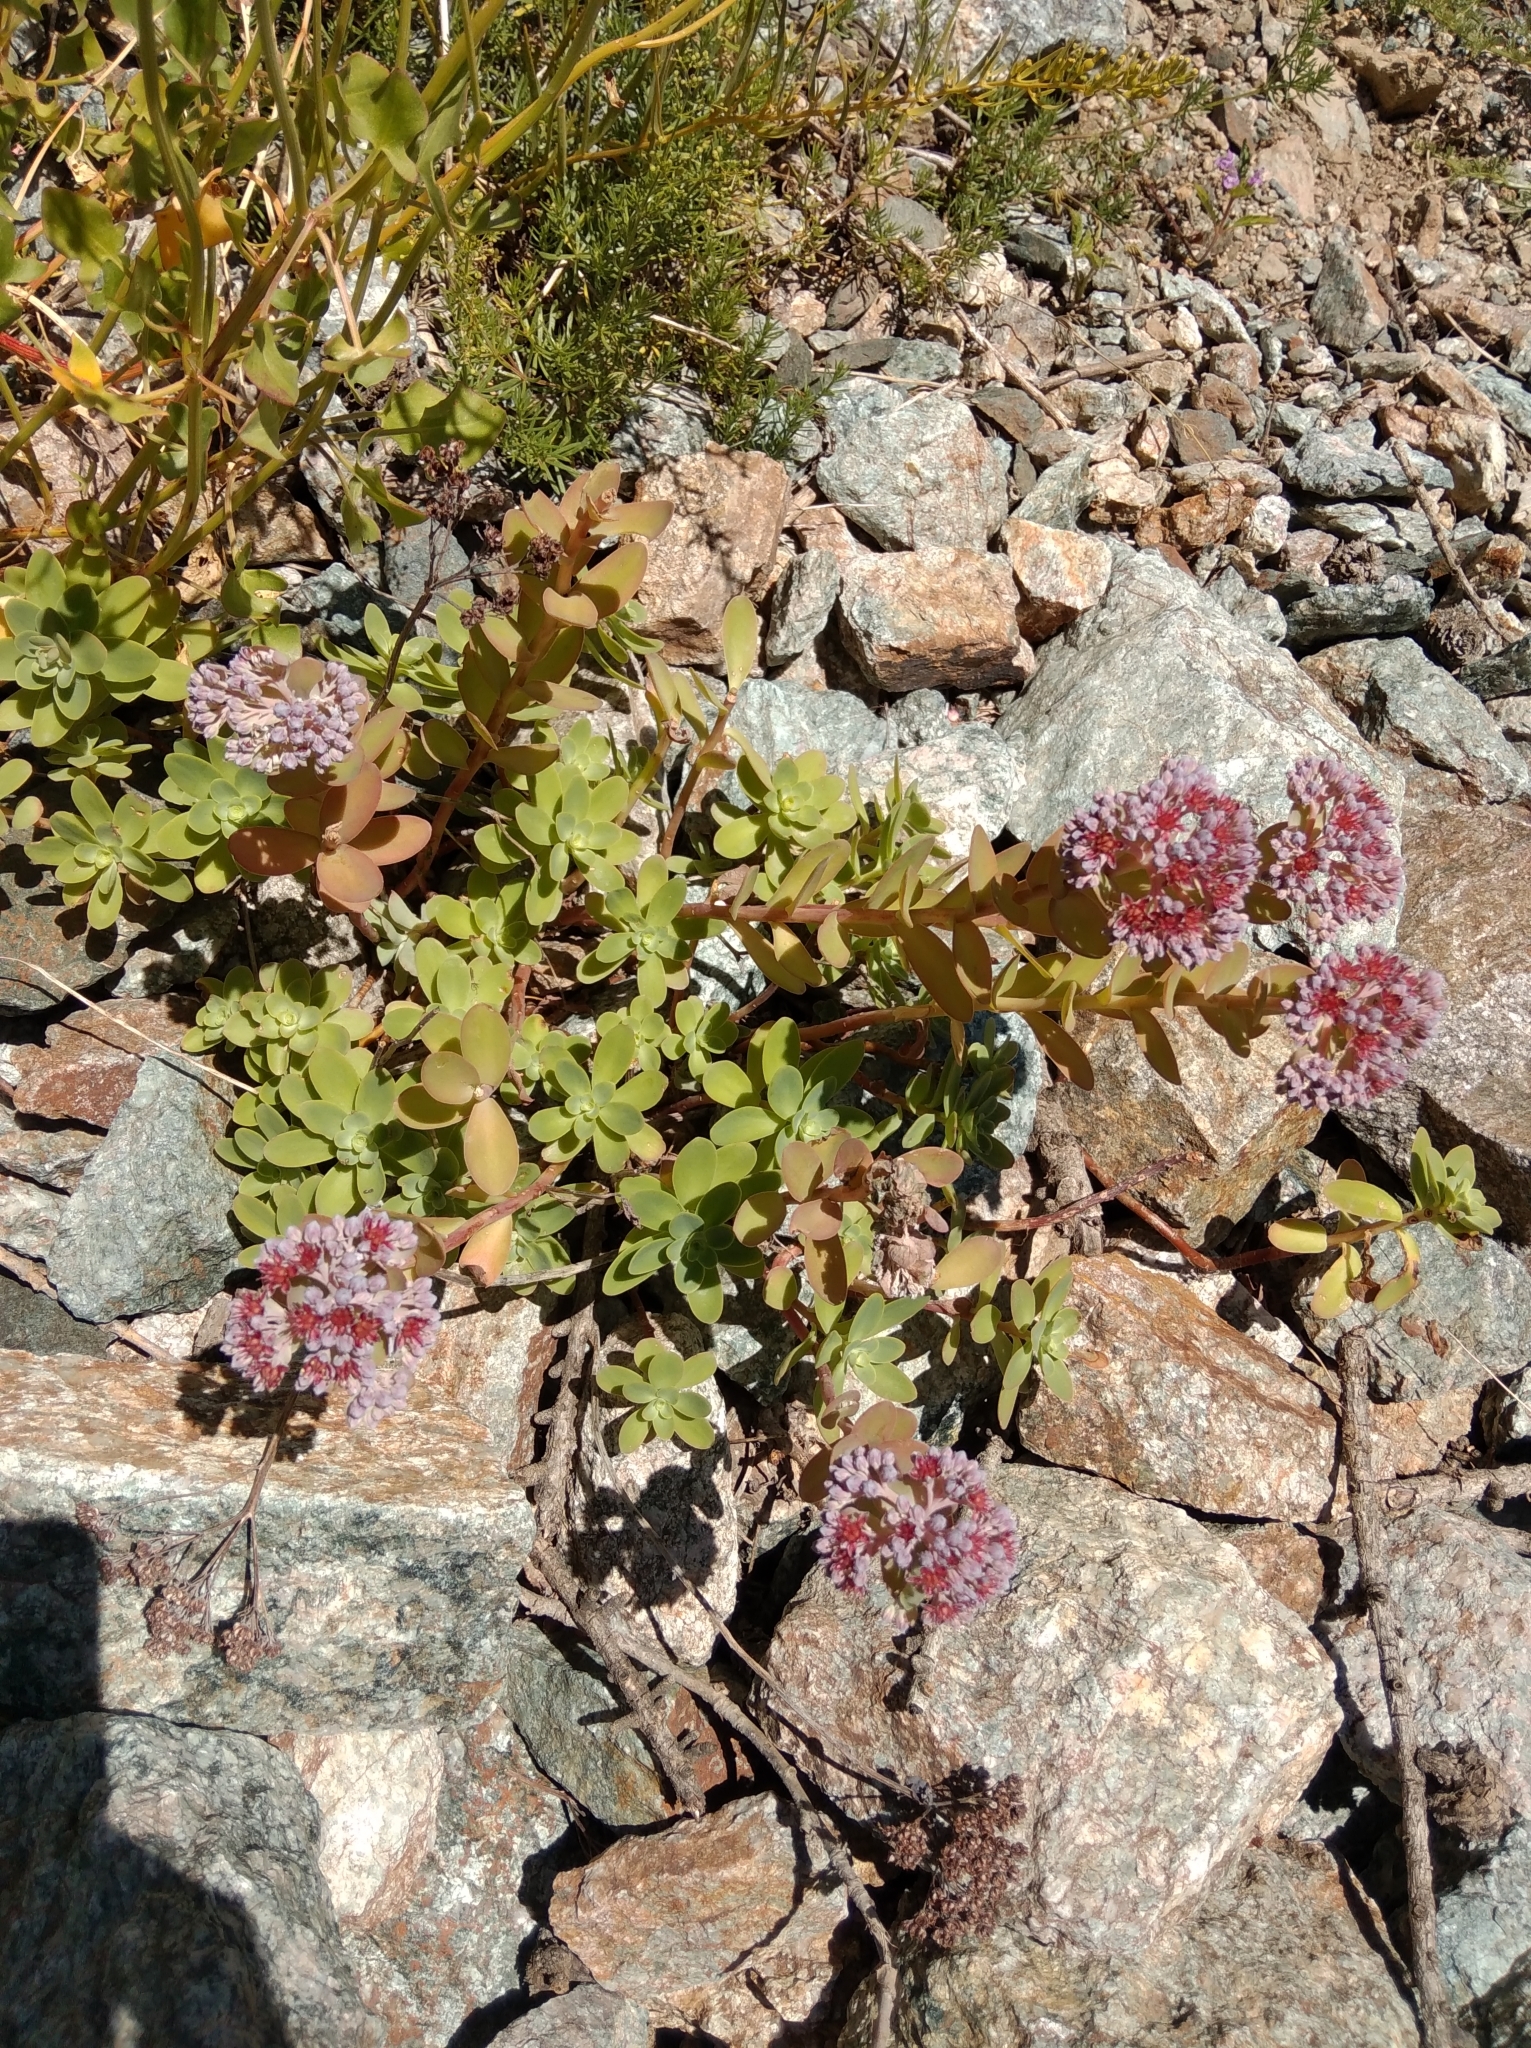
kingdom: Plantae
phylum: Tracheophyta
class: Magnoliopsida
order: Saxifragales
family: Crassulaceae
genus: Hylotelephium
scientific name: Hylotelephium anacampseros
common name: Love-restorer
